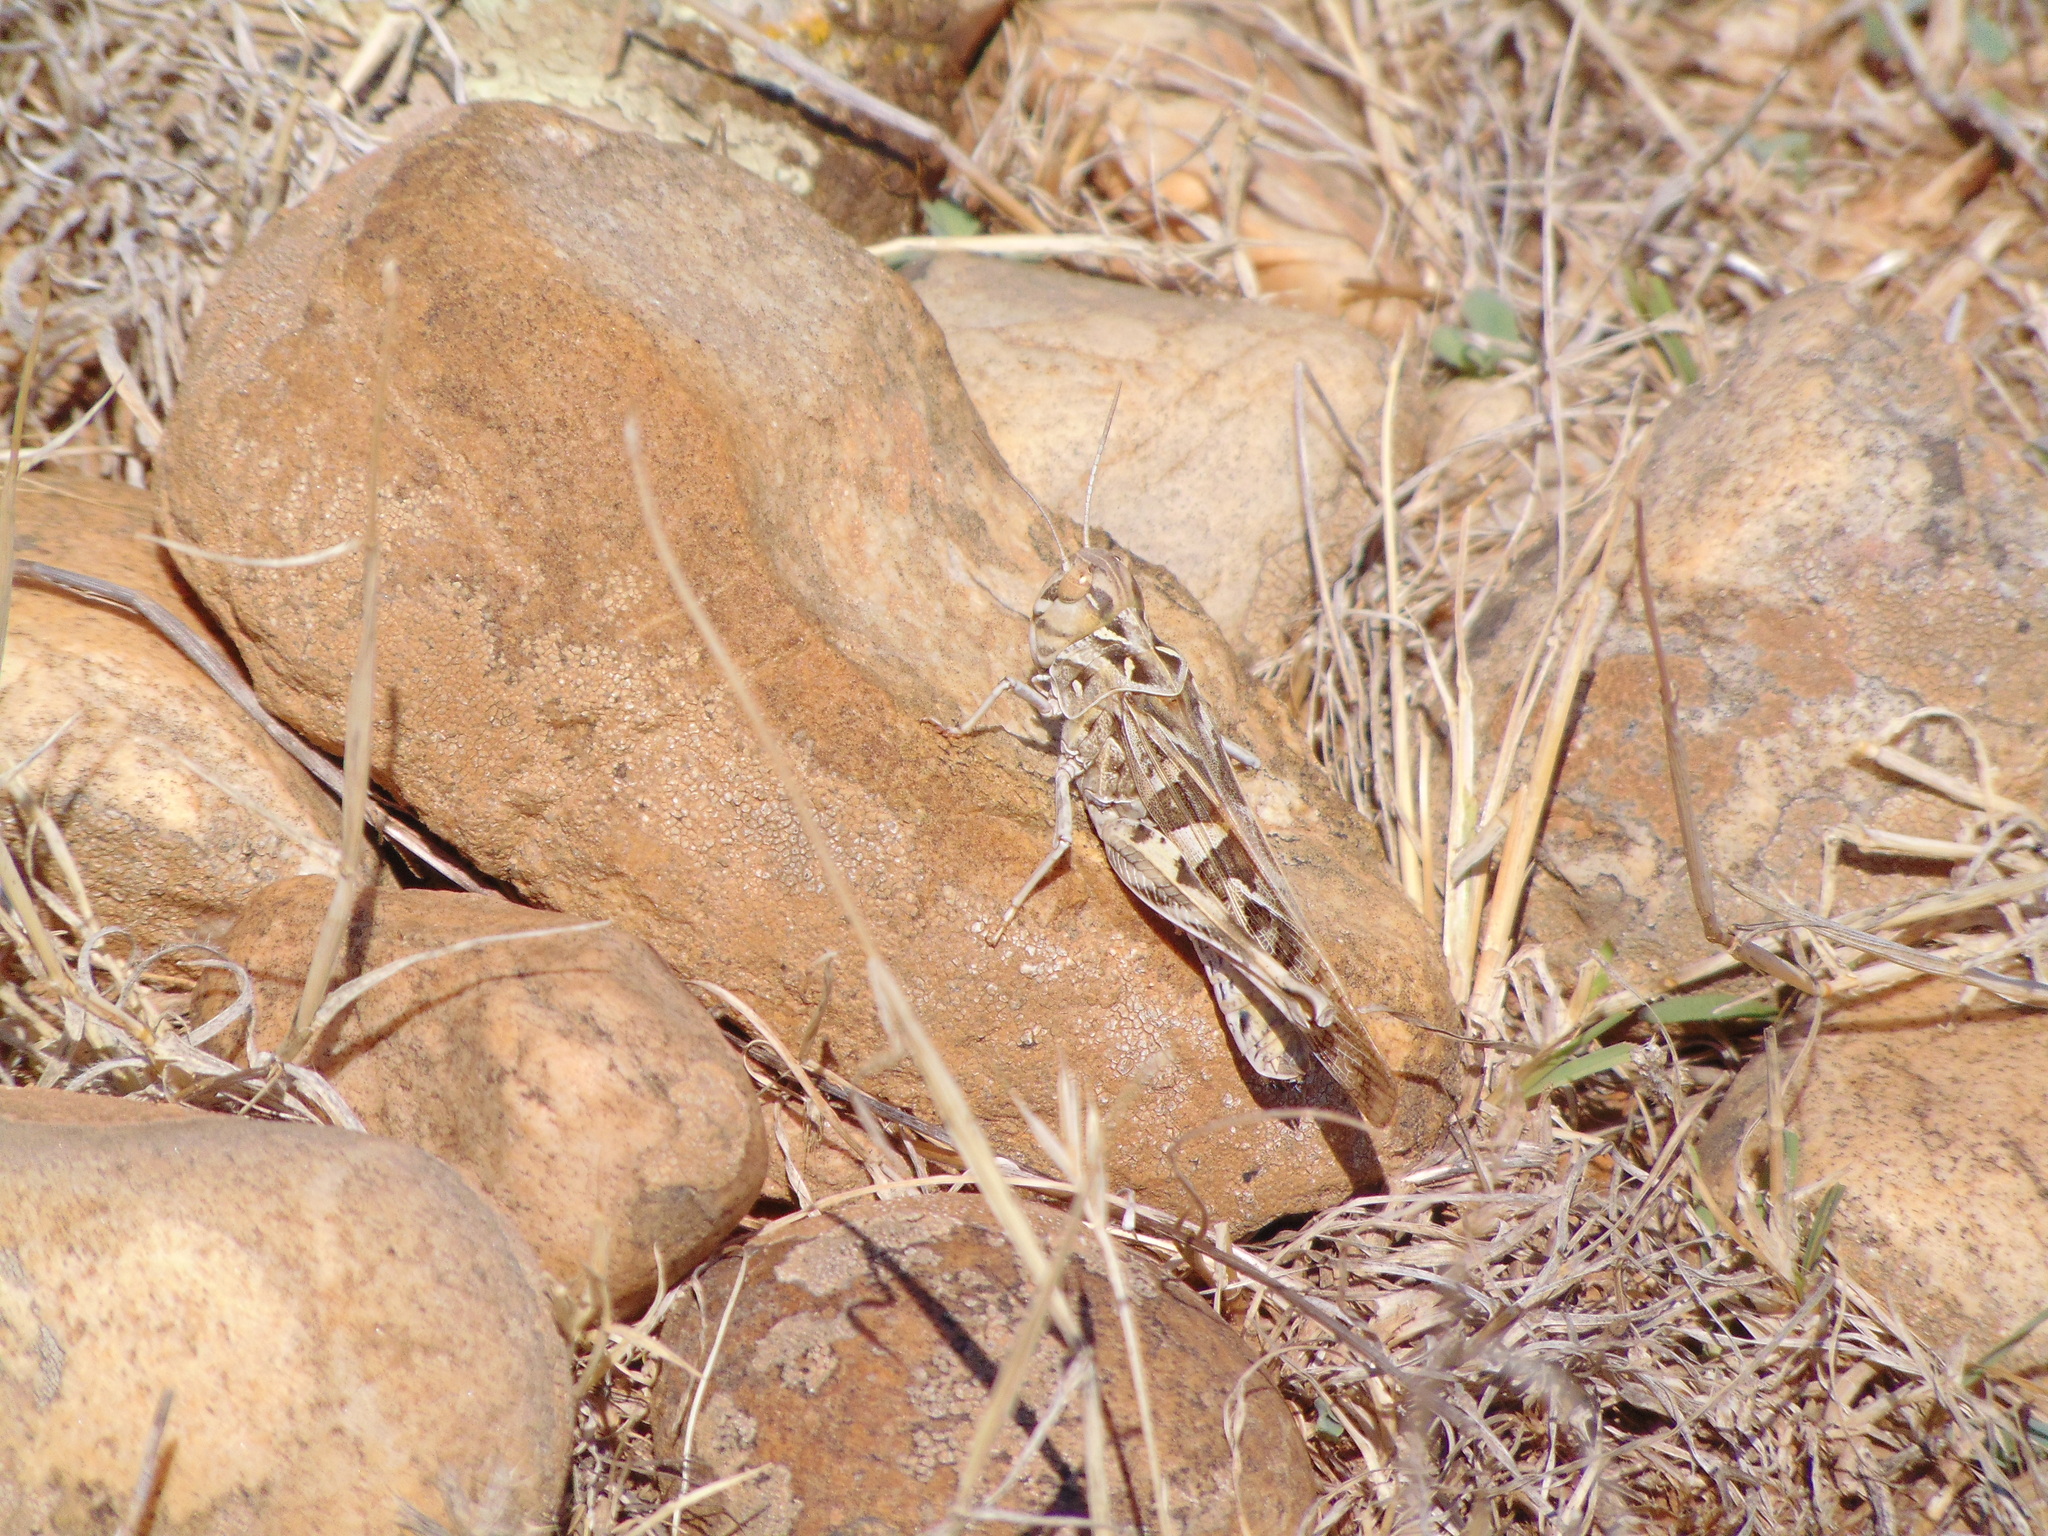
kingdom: Animalia
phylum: Arthropoda
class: Insecta
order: Orthoptera
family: Acrididae
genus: Oedaleus
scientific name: Oedaleus decorus
